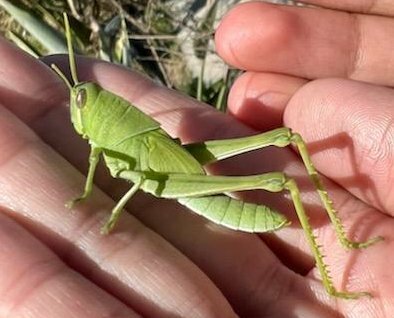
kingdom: Animalia
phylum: Arthropoda
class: Insecta
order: Orthoptera
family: Acrididae
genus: Schistocerca
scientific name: Schistocerca nitens
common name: Vagrant grasshopper
